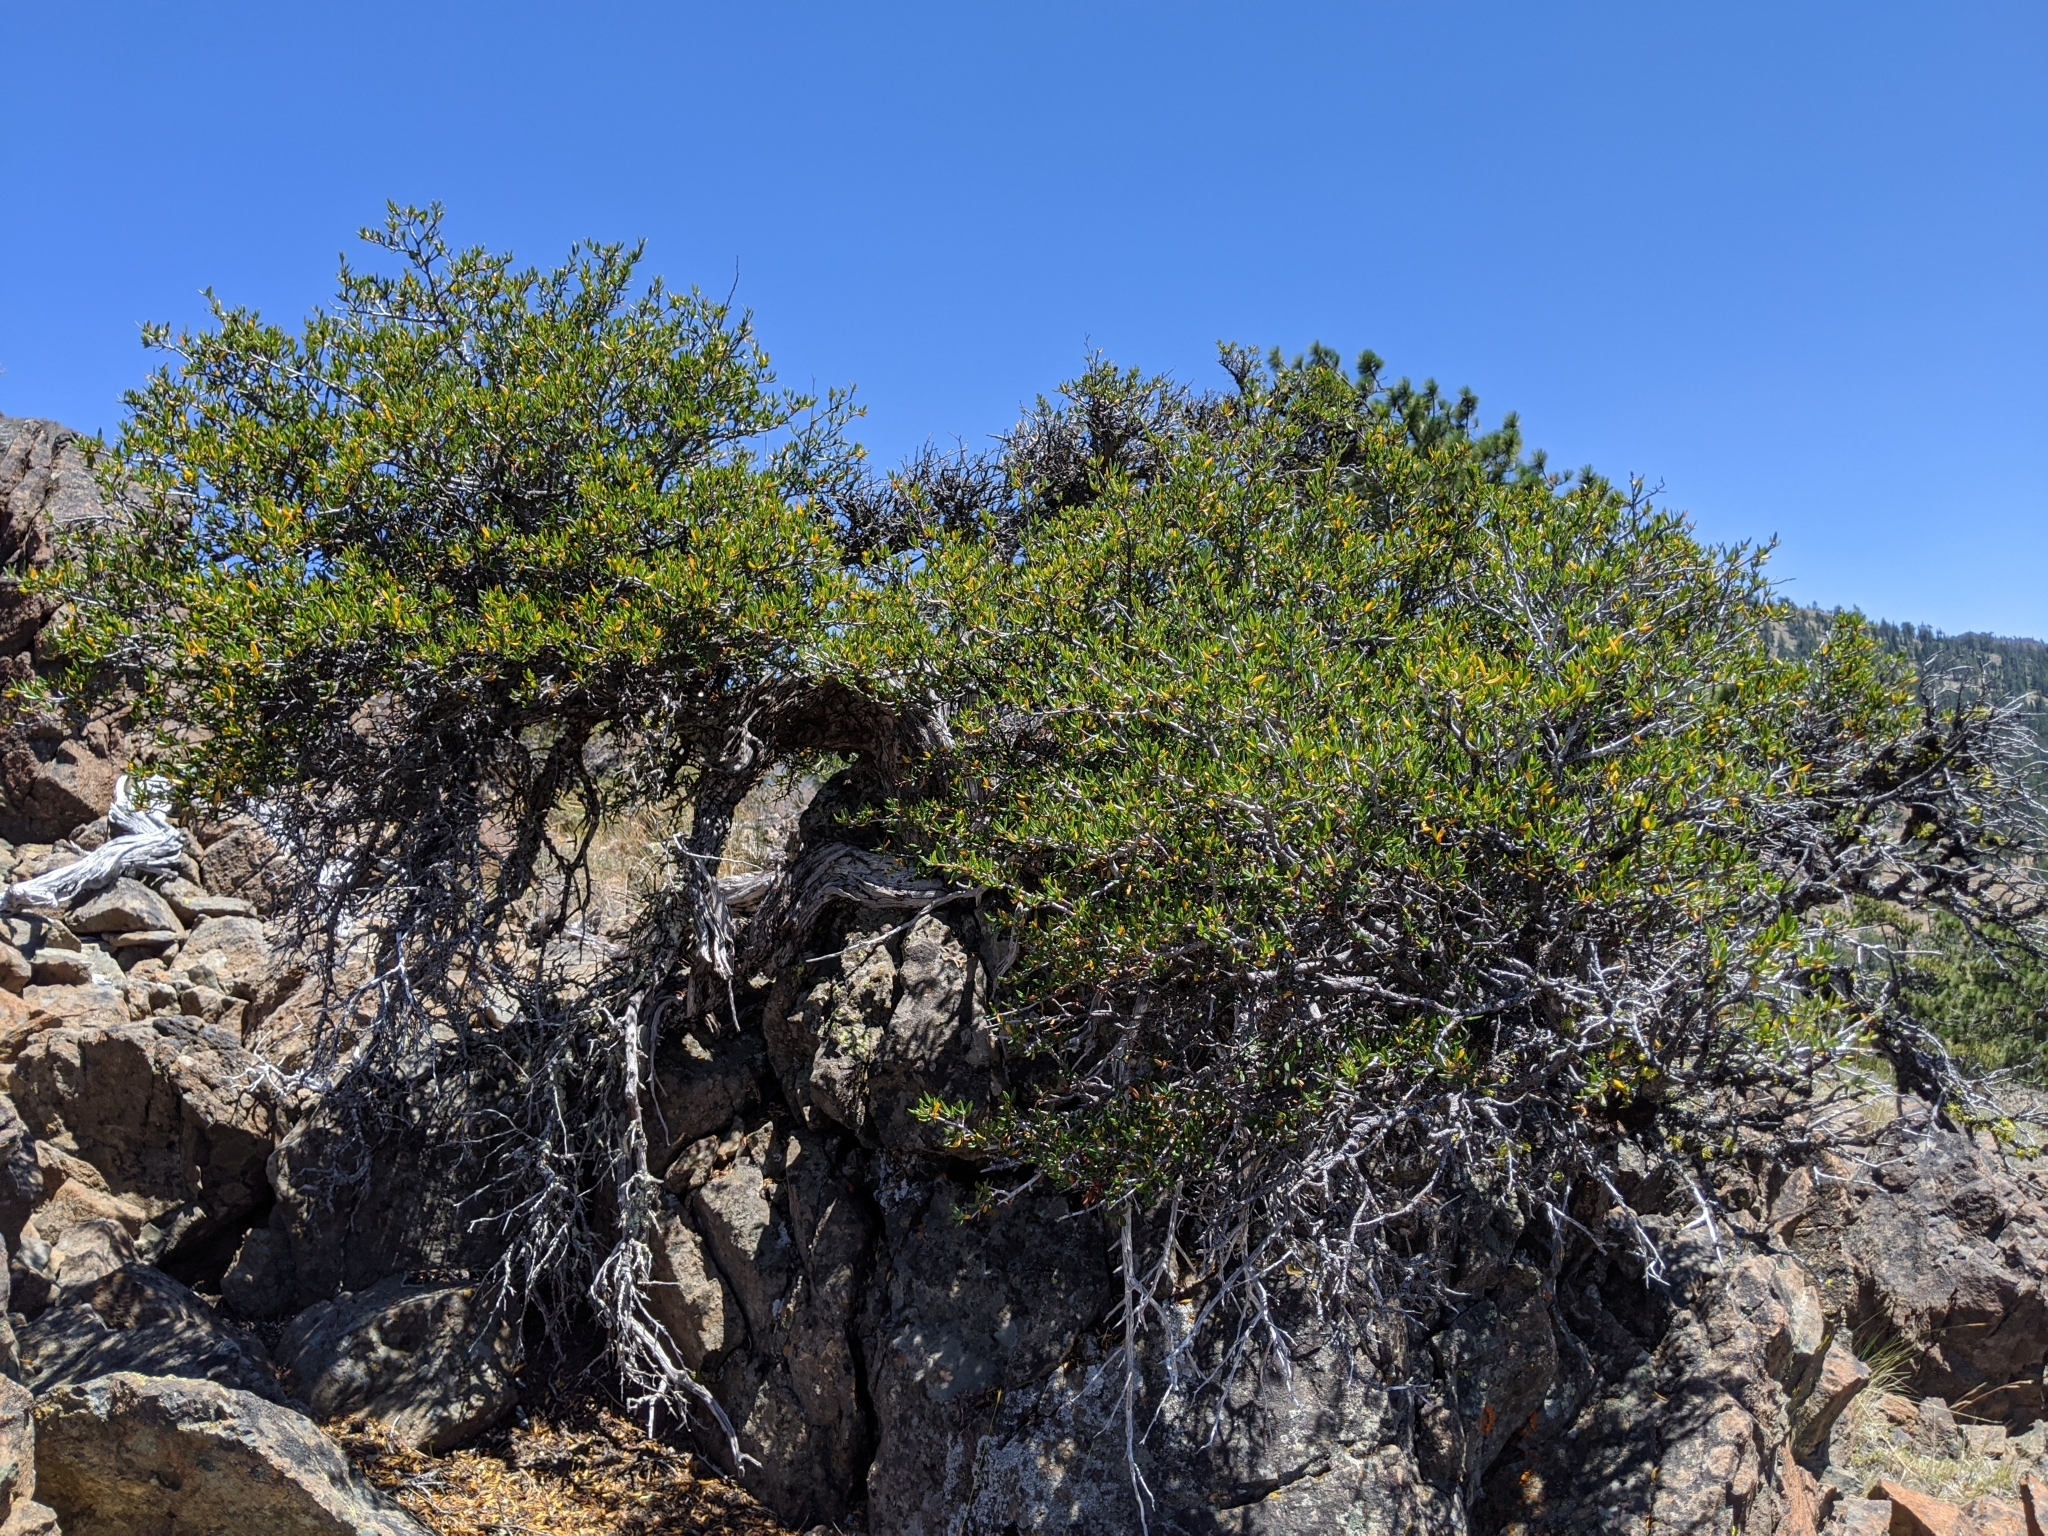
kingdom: Plantae
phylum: Tracheophyta
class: Magnoliopsida
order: Rosales
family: Rosaceae
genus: Cercocarpus
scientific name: Cercocarpus ledifolius
